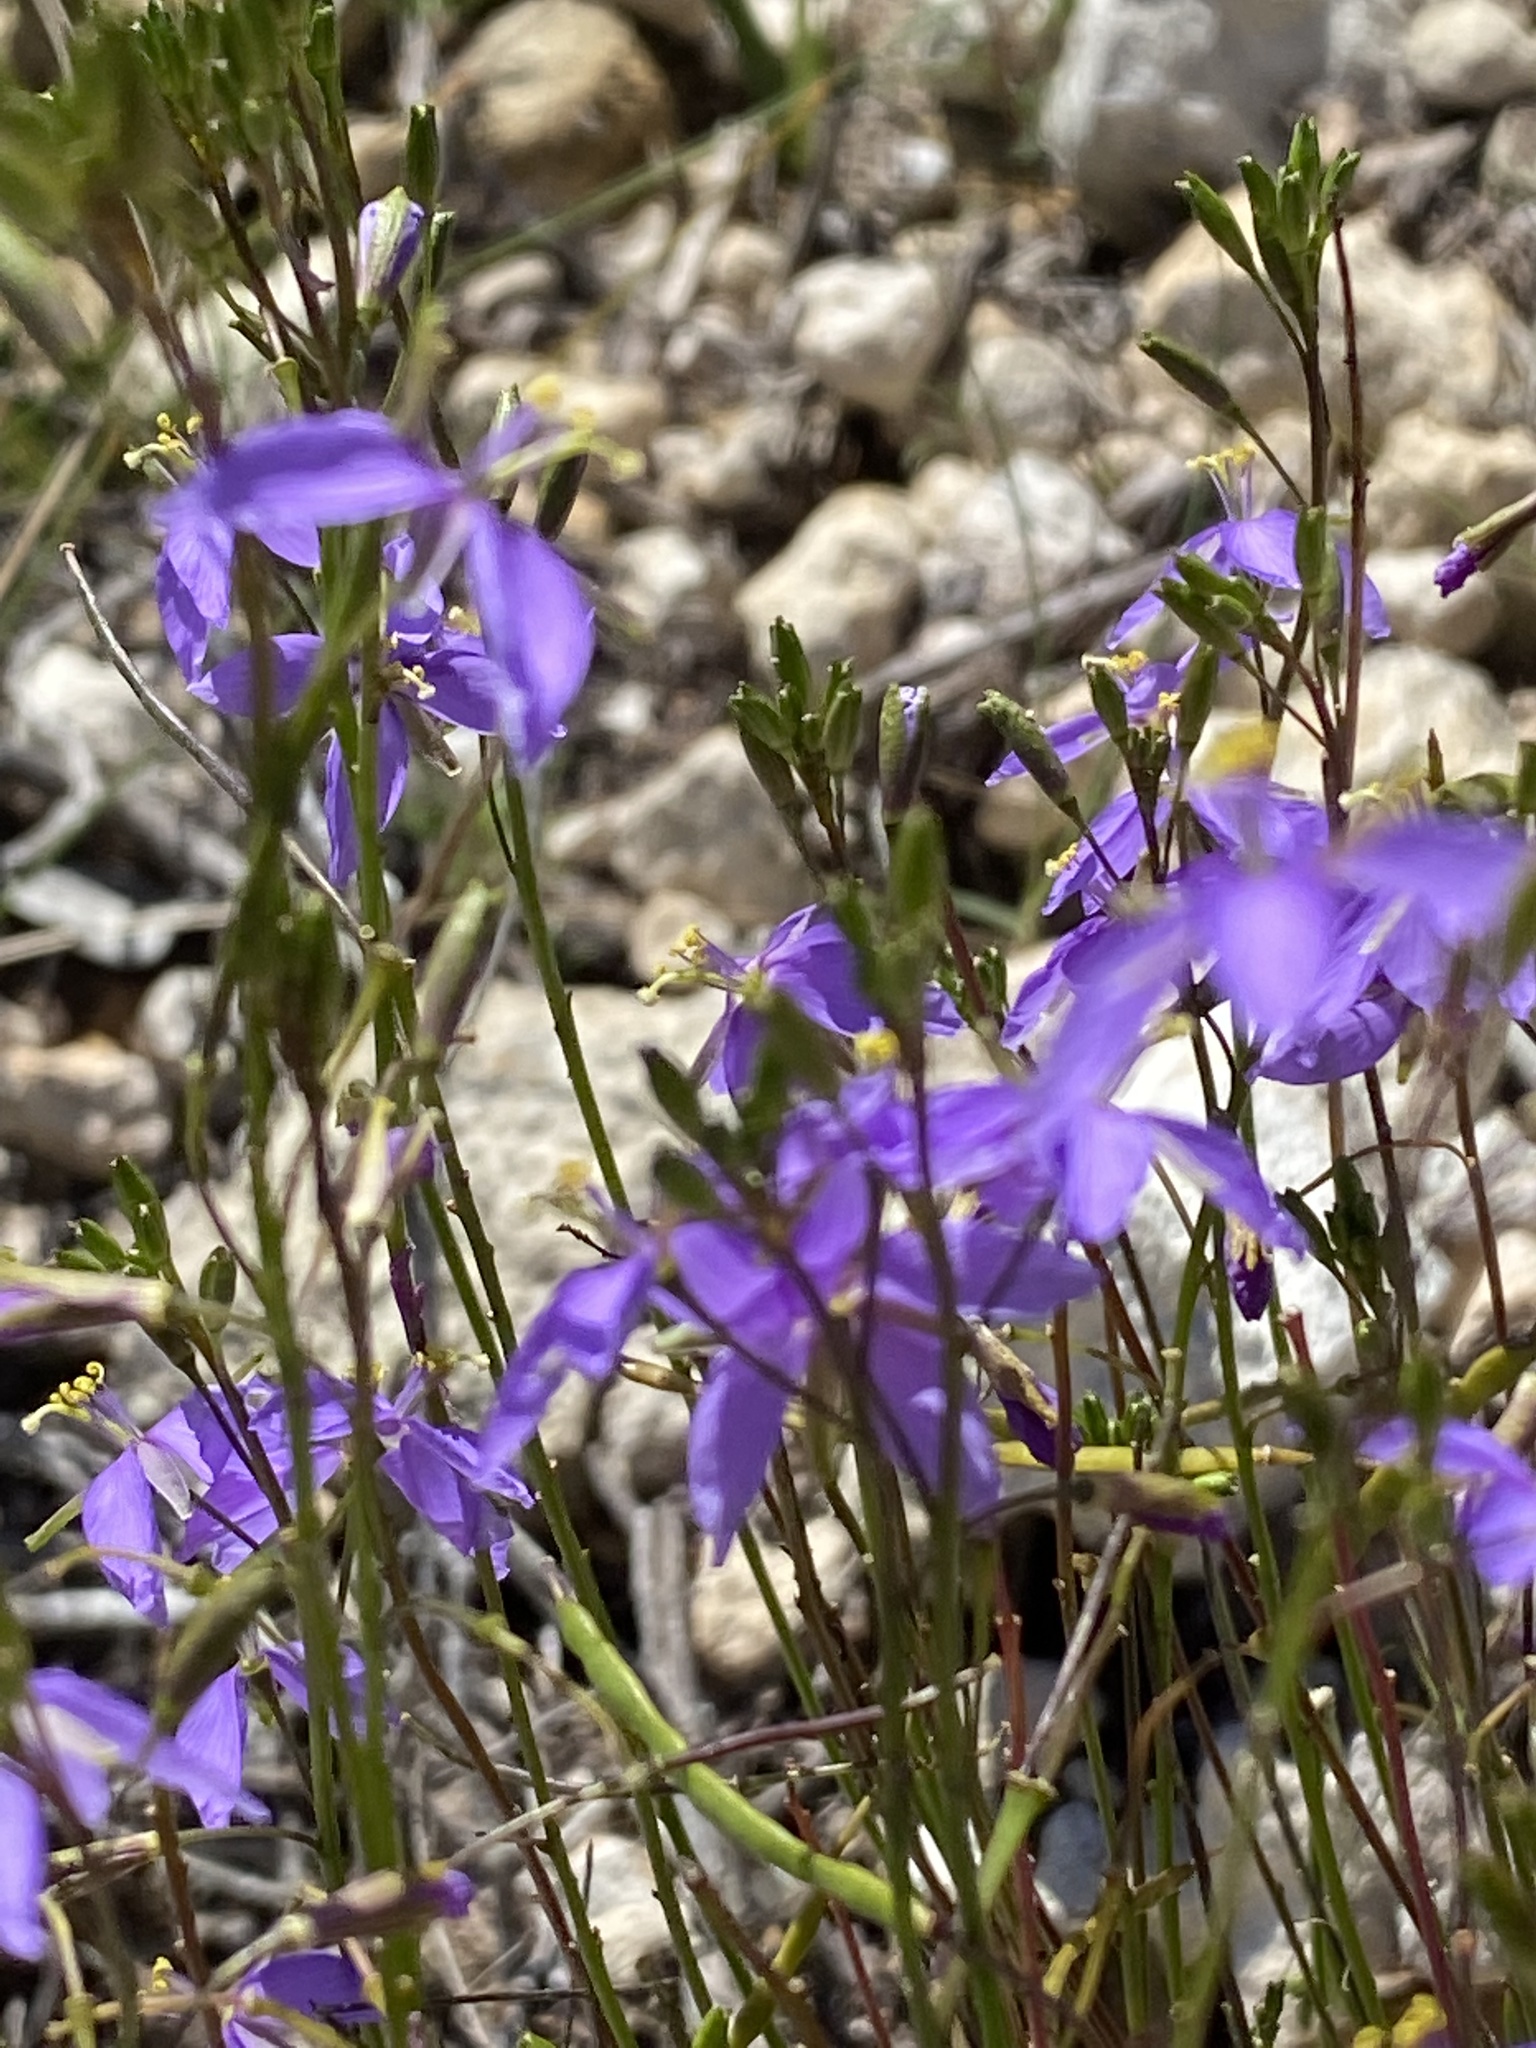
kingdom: Plantae
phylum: Tracheophyta
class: Magnoliopsida
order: Brassicales
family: Brassicaceae
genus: Heliophila
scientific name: Heliophila subulata
